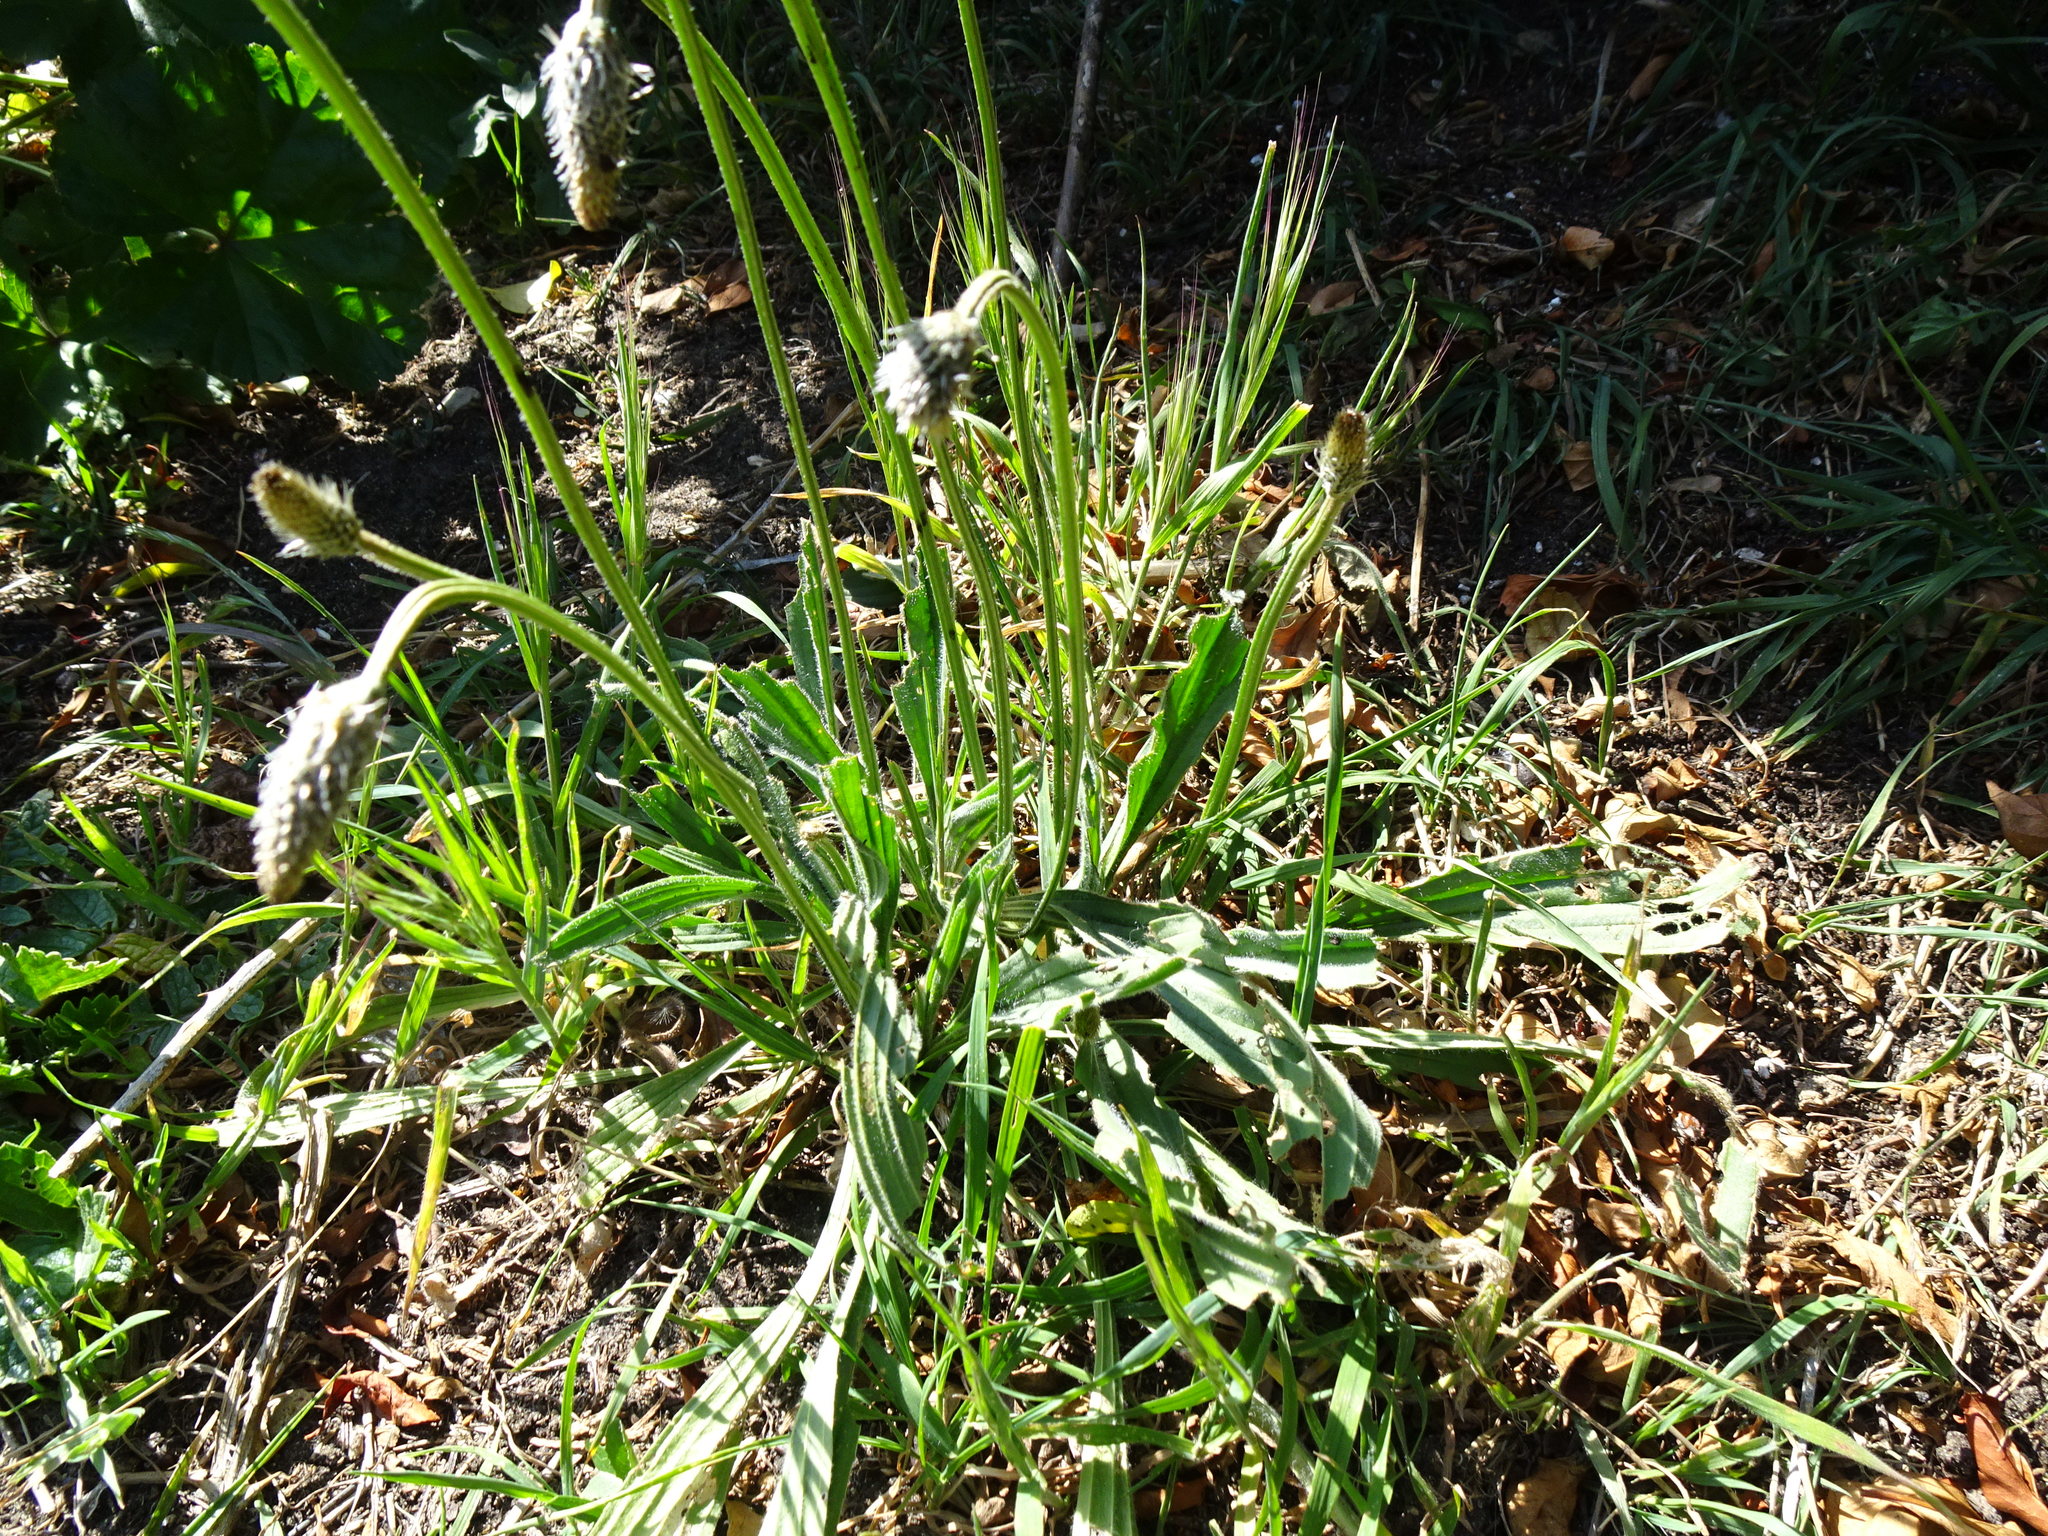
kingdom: Plantae
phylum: Tracheophyta
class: Magnoliopsida
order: Lamiales
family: Plantaginaceae
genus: Plantago
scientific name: Plantago lanceolata
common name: Ribwort plantain
